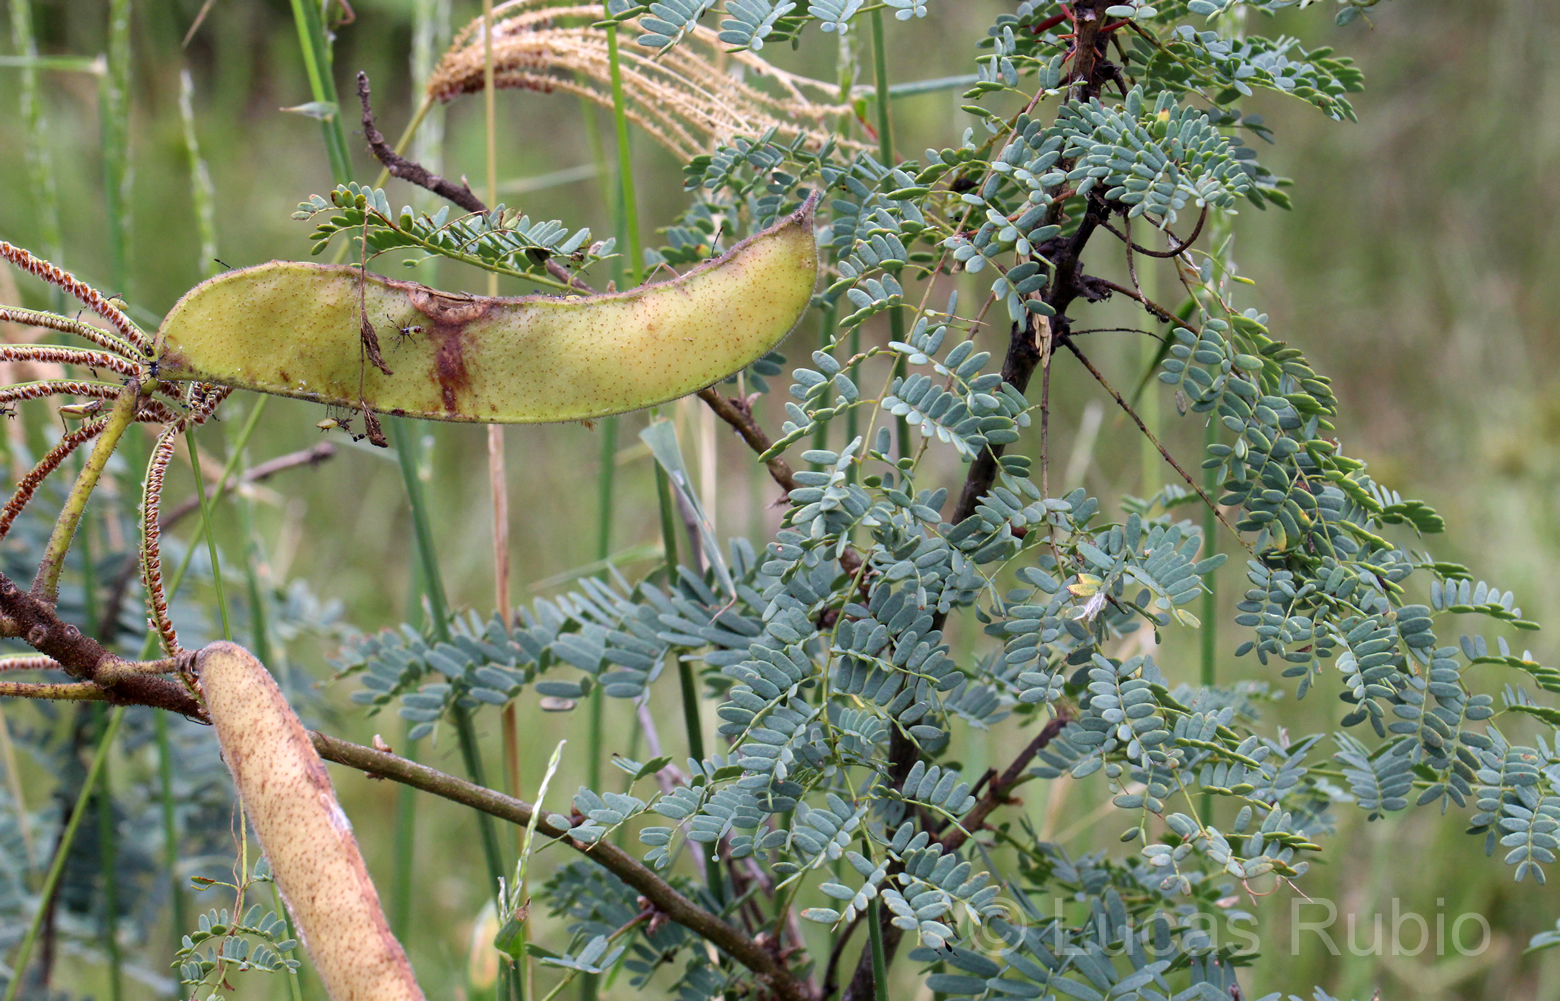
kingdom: Plantae
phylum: Tracheophyta
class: Magnoliopsida
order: Fabales
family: Fabaceae
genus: Erythrostemon
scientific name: Erythrostemon gilliesii
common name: Bird-of-paradise shrub
